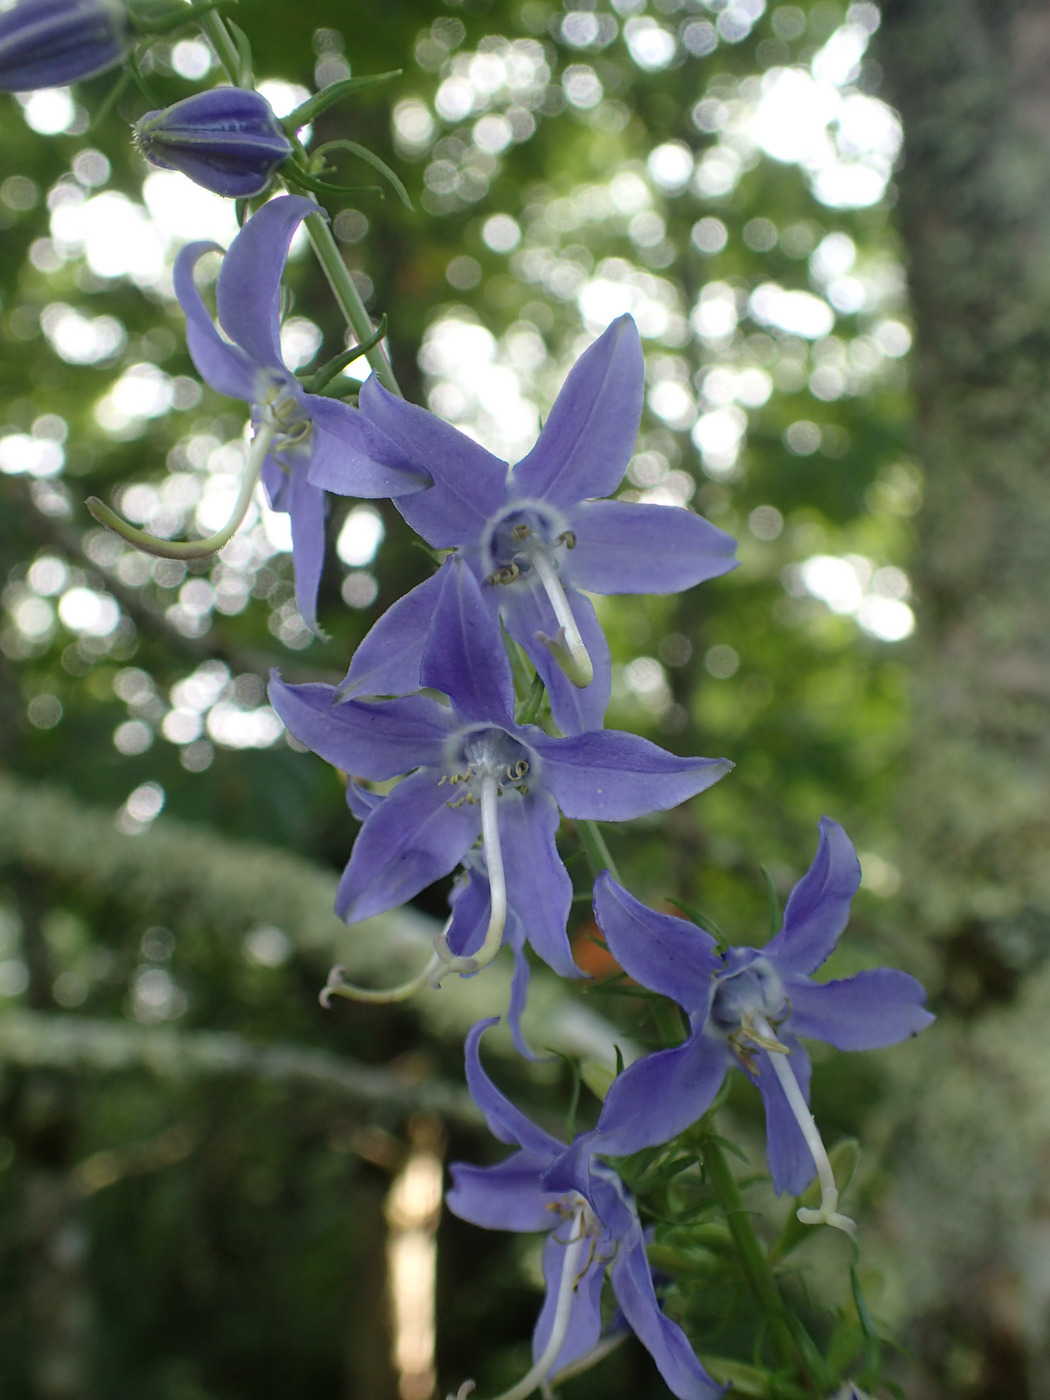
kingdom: Plantae
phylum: Tracheophyta
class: Magnoliopsida
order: Asterales
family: Campanulaceae
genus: Campanulastrum
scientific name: Campanulastrum americanum
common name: American bellflower
